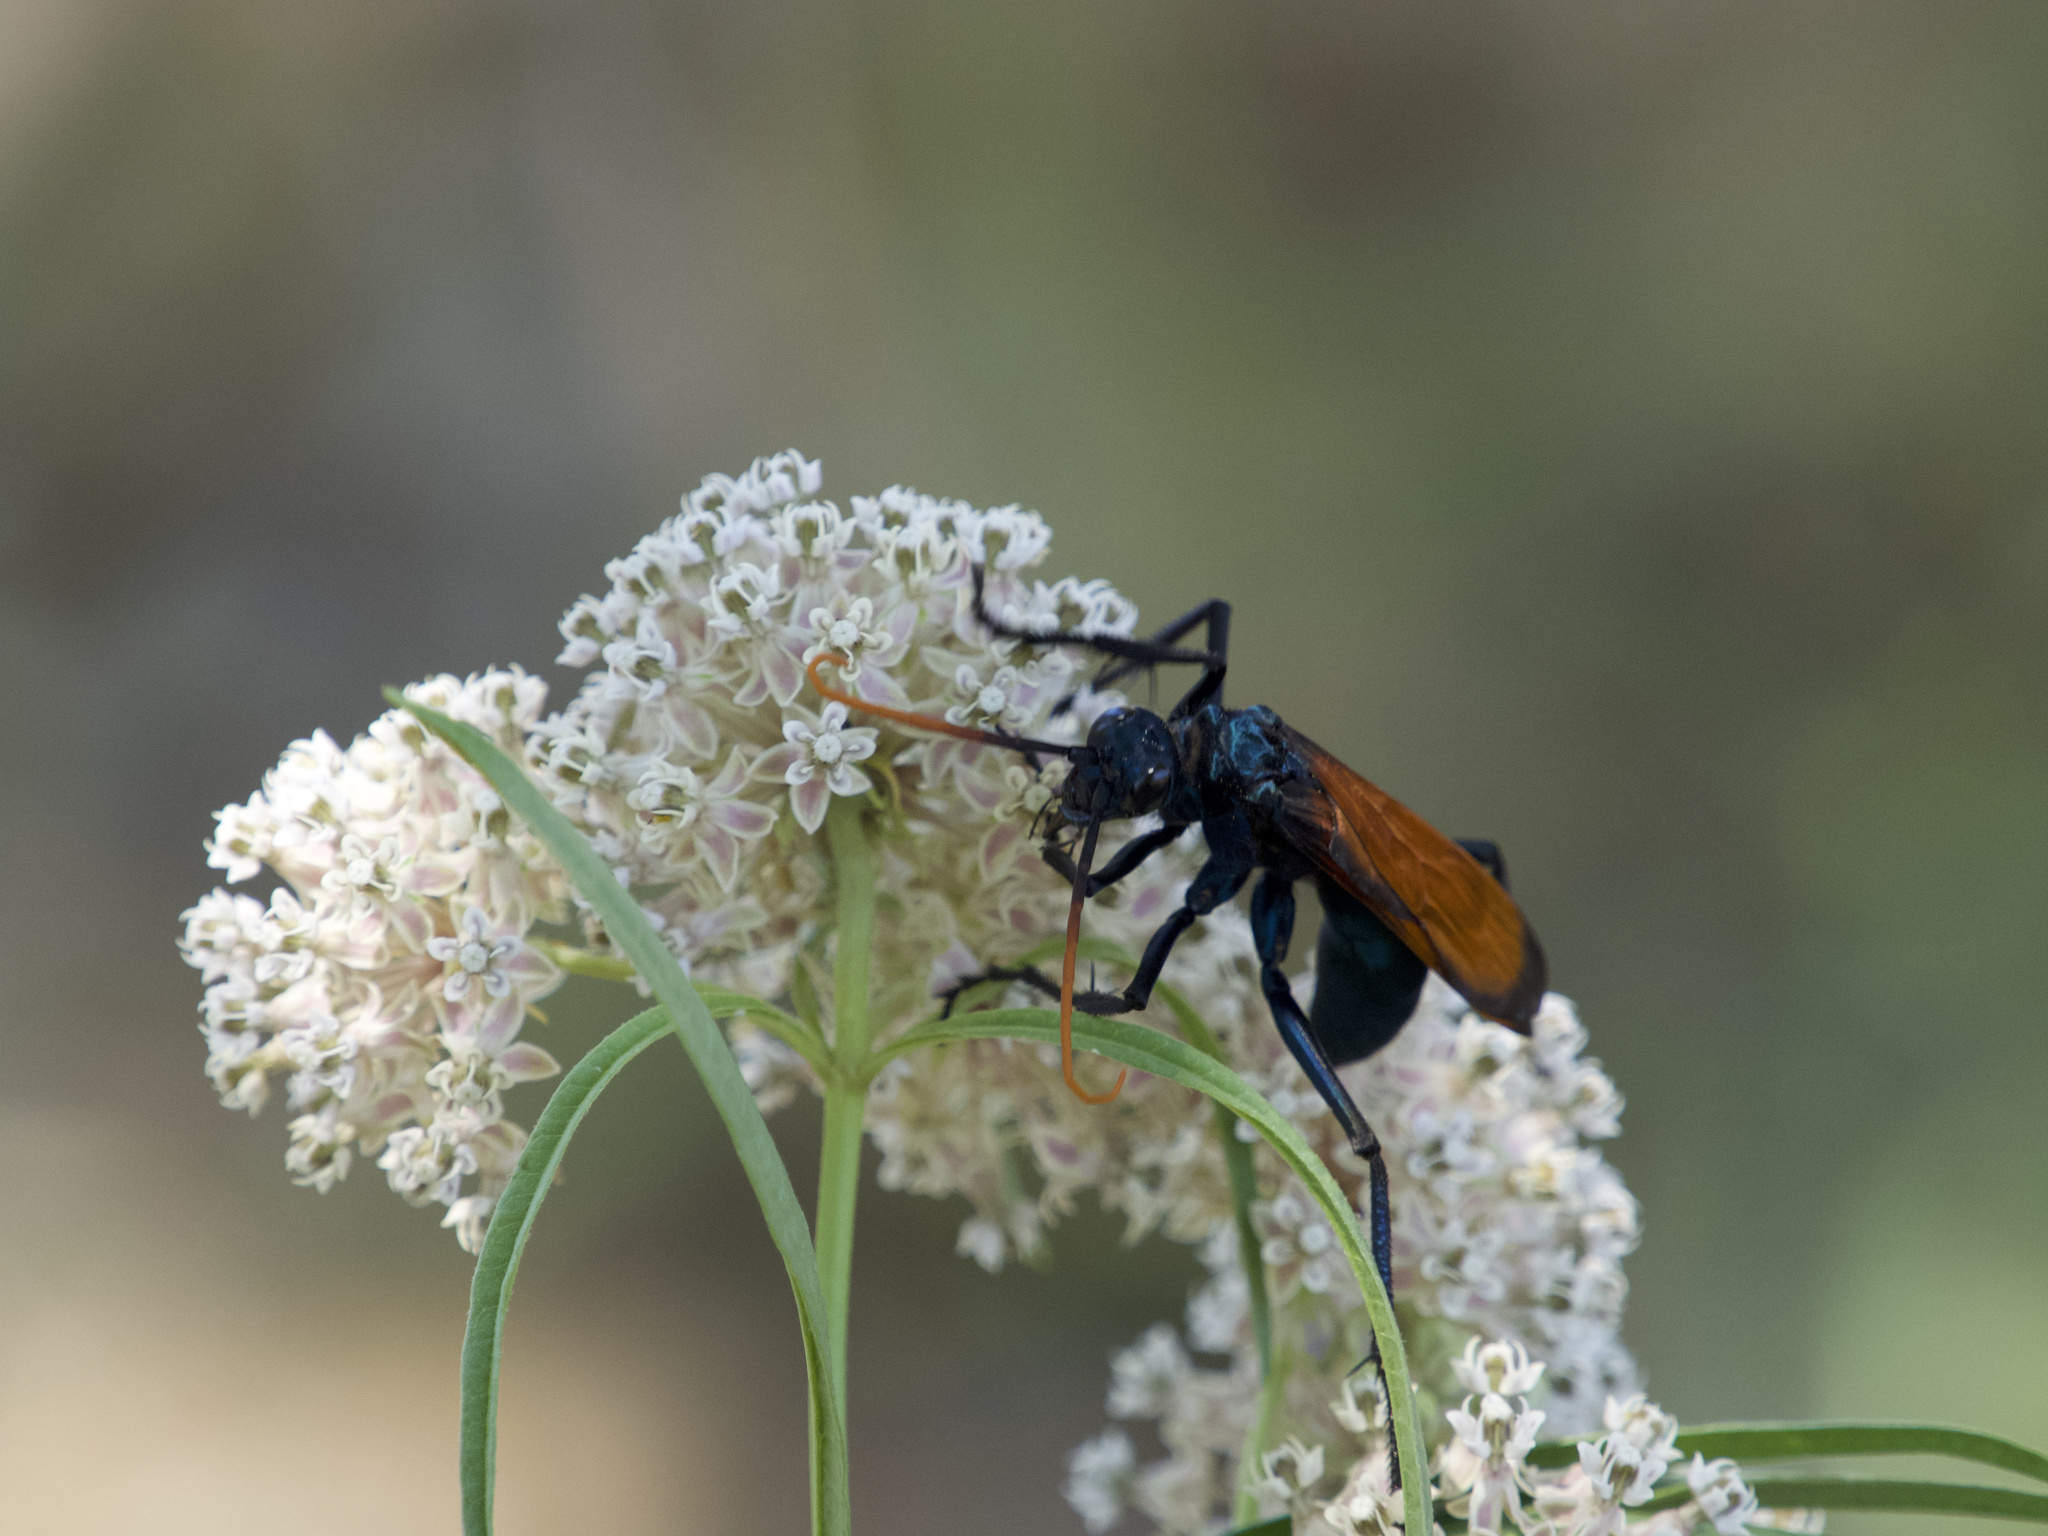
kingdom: Animalia
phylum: Arthropoda
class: Insecta
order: Hymenoptera
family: Pompilidae
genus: Pepsis
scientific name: Pepsis mildei
